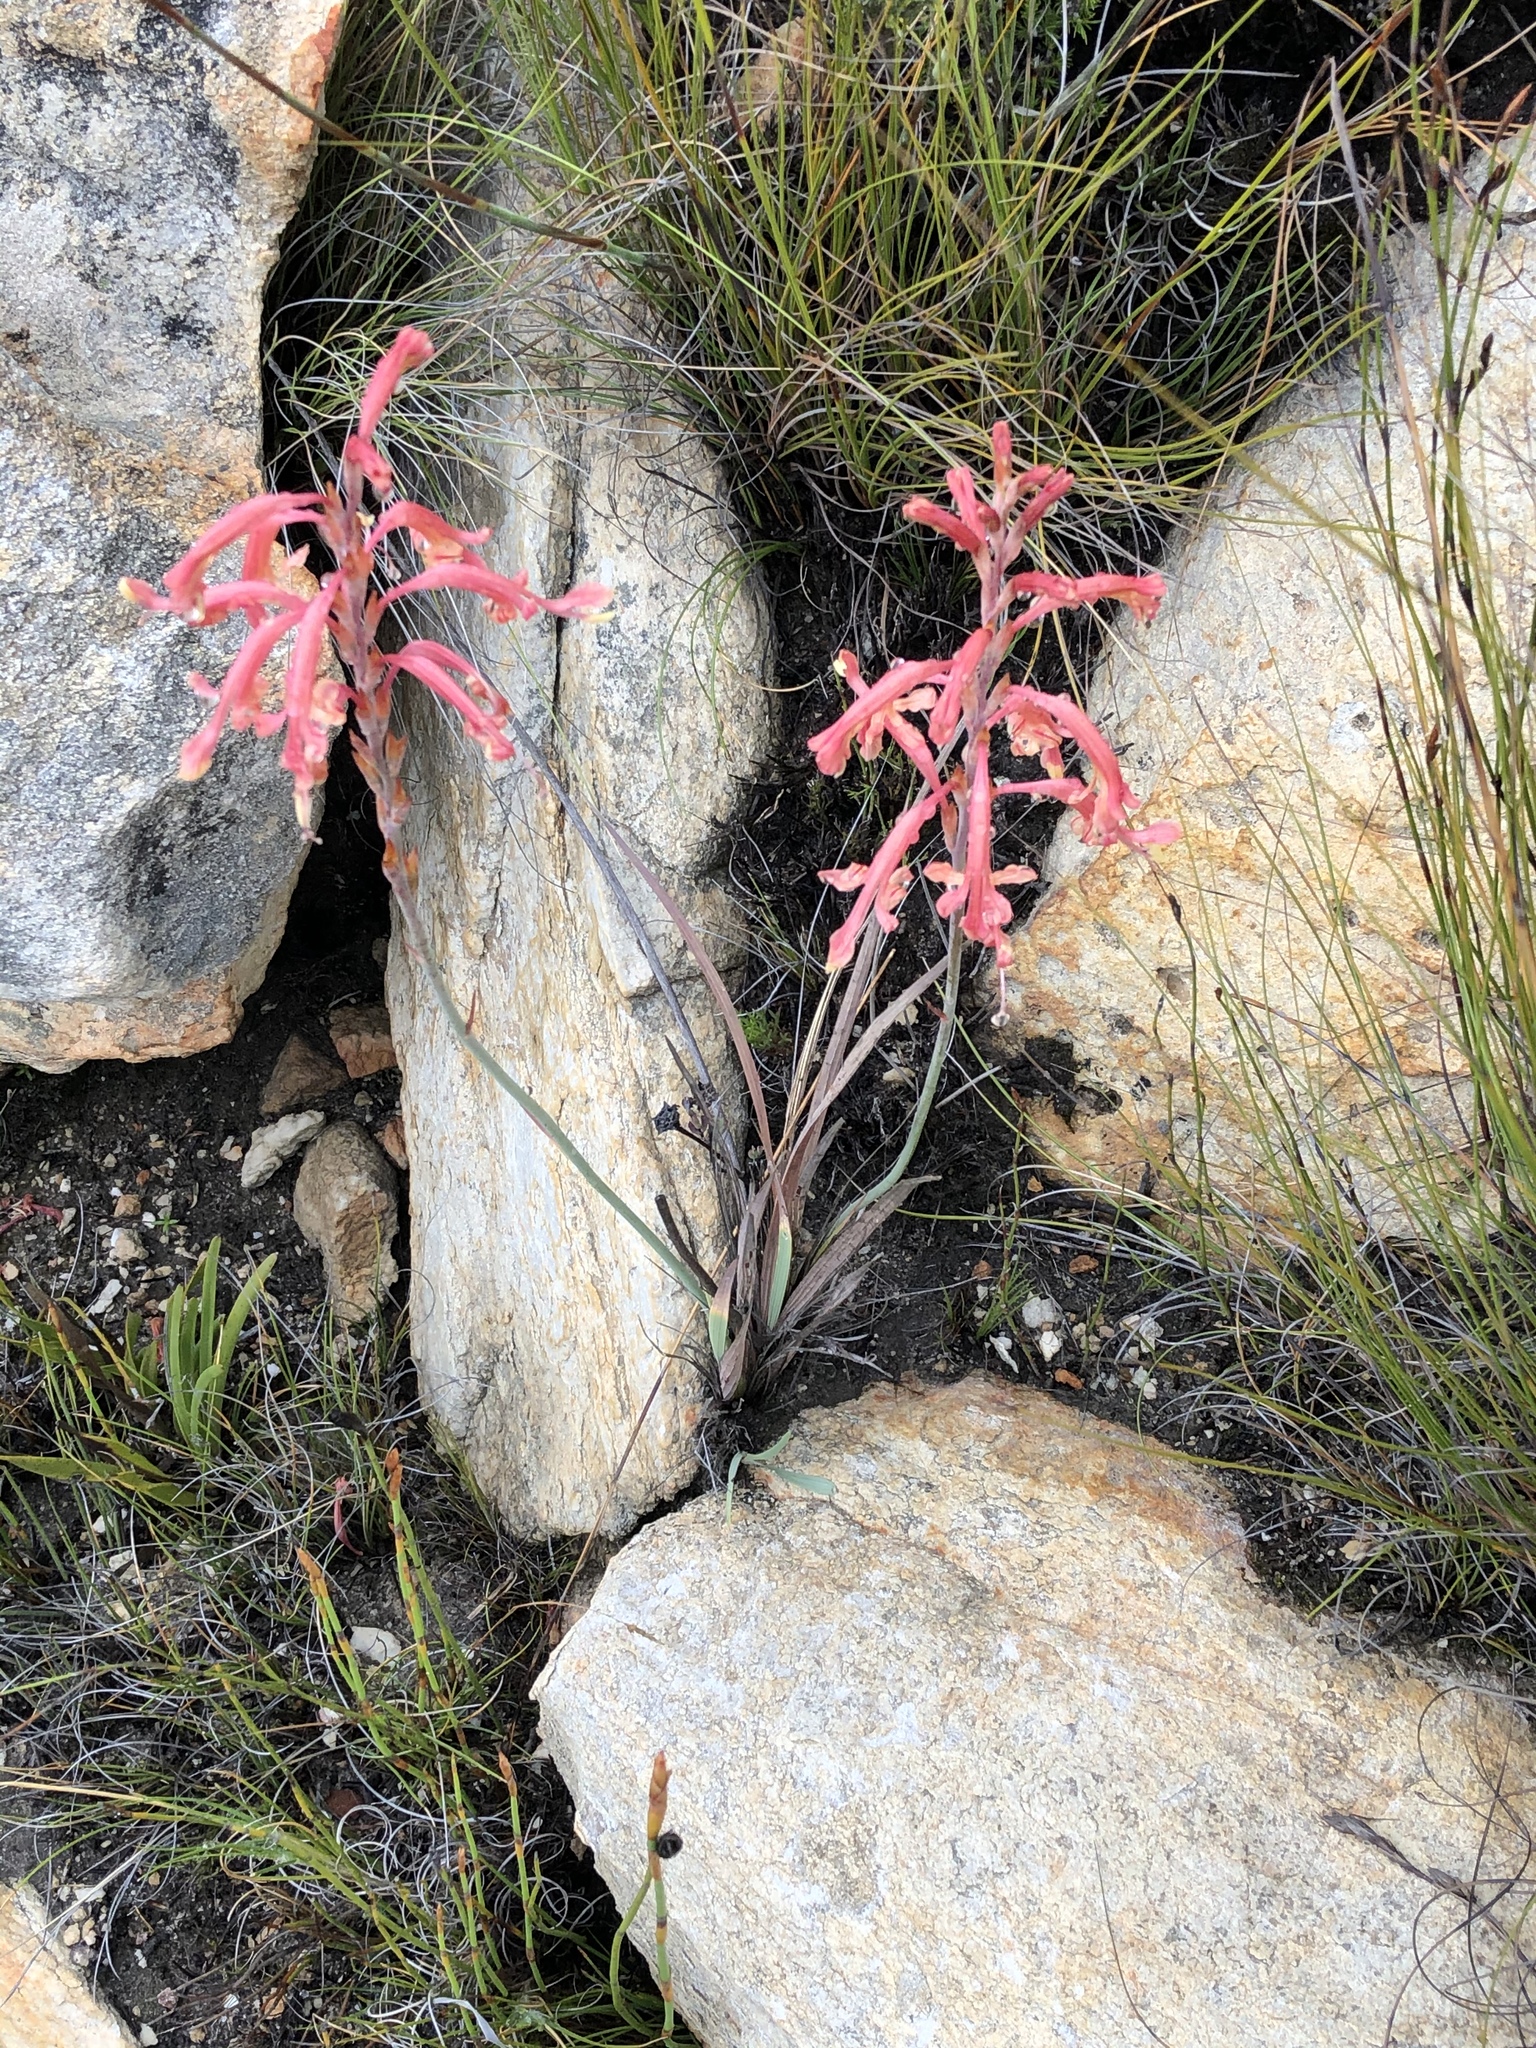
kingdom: Plantae
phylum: Tracheophyta
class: Liliopsida
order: Asparagales
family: Iridaceae
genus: Tritoniopsis
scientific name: Tritoniopsis antholyza
